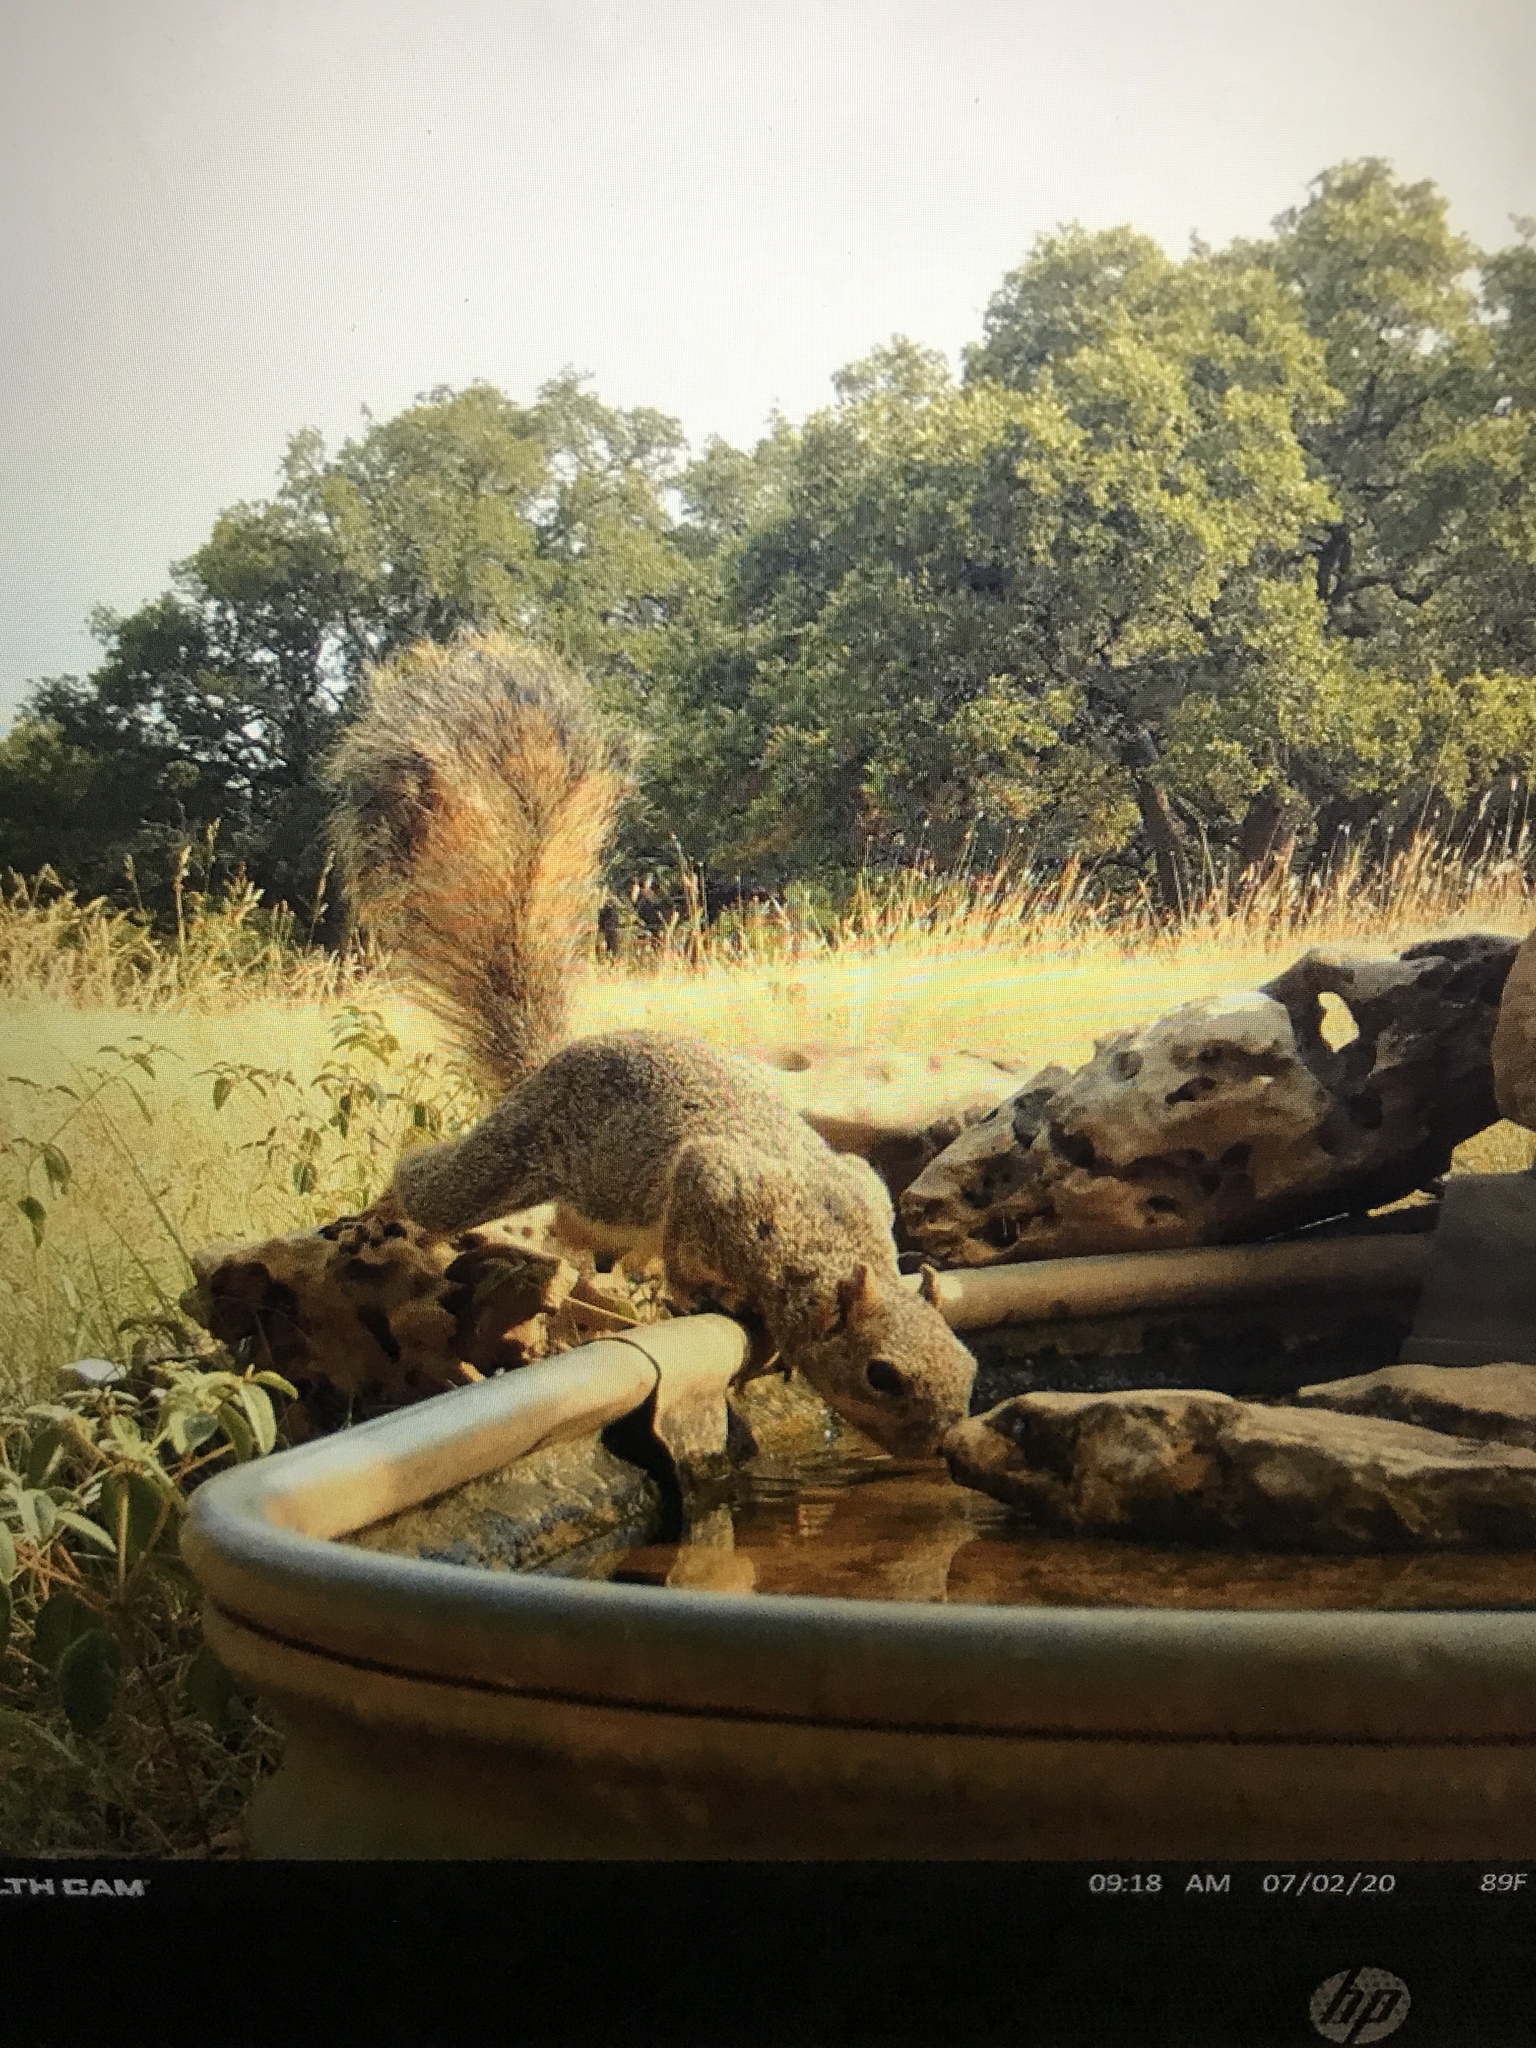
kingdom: Animalia
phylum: Chordata
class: Mammalia
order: Rodentia
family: Sciuridae
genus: Sciurus
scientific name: Sciurus niger
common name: Fox squirrel
